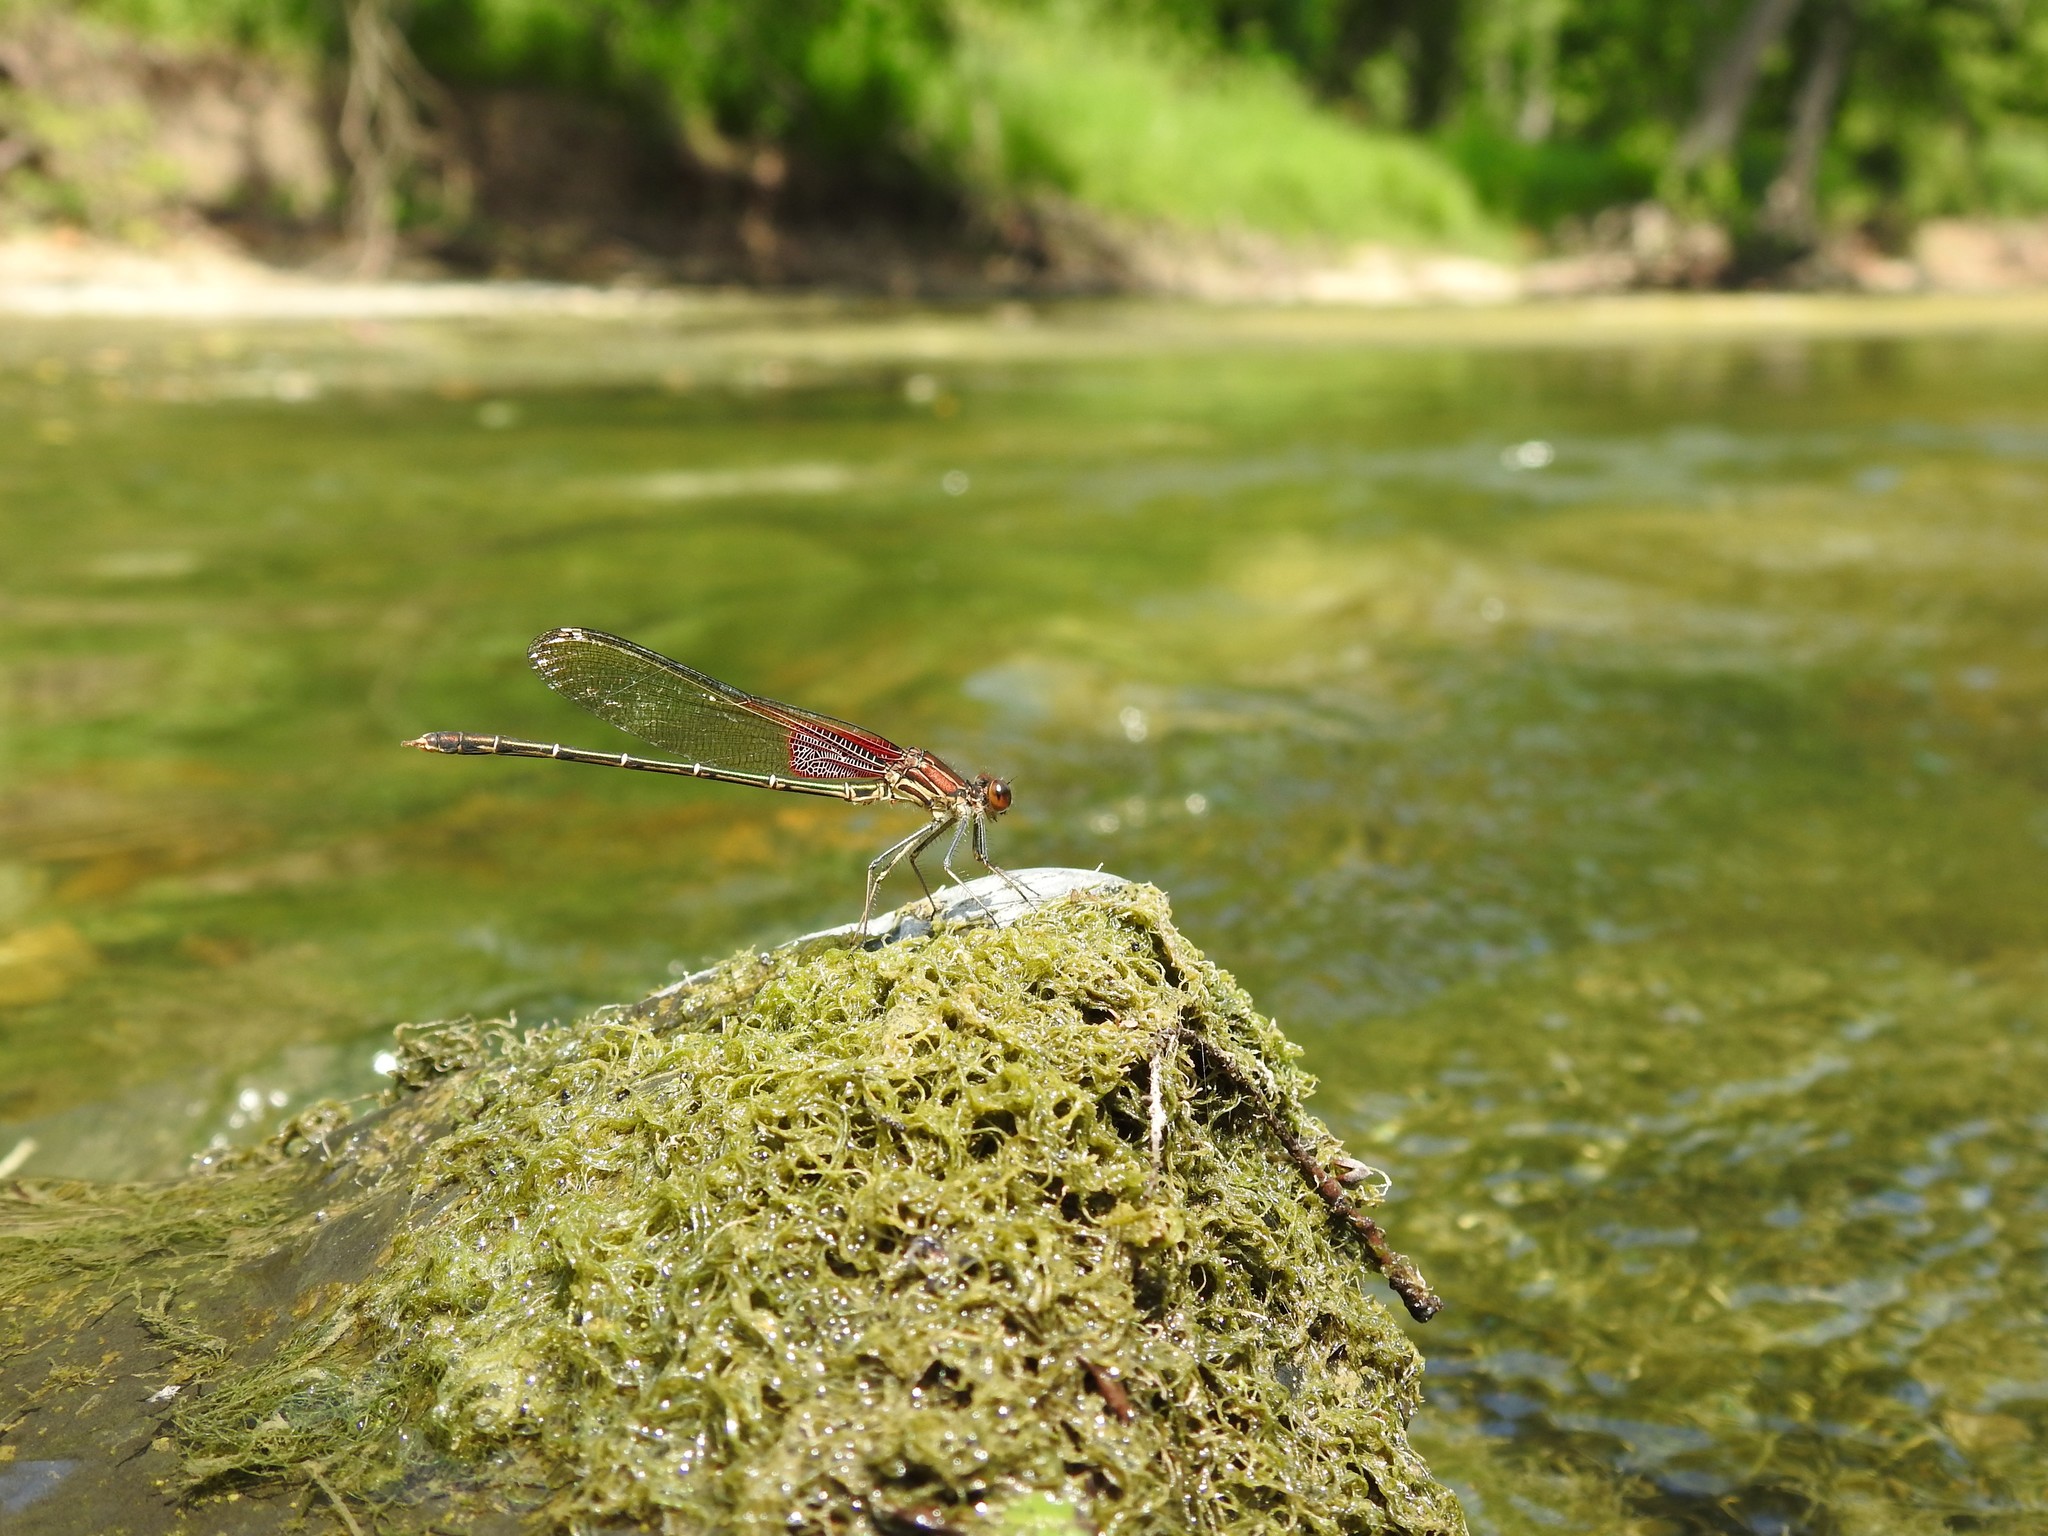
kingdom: Animalia
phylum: Arthropoda
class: Insecta
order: Odonata
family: Calopterygidae
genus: Hetaerina
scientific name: Hetaerina americana
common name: American rubyspot
